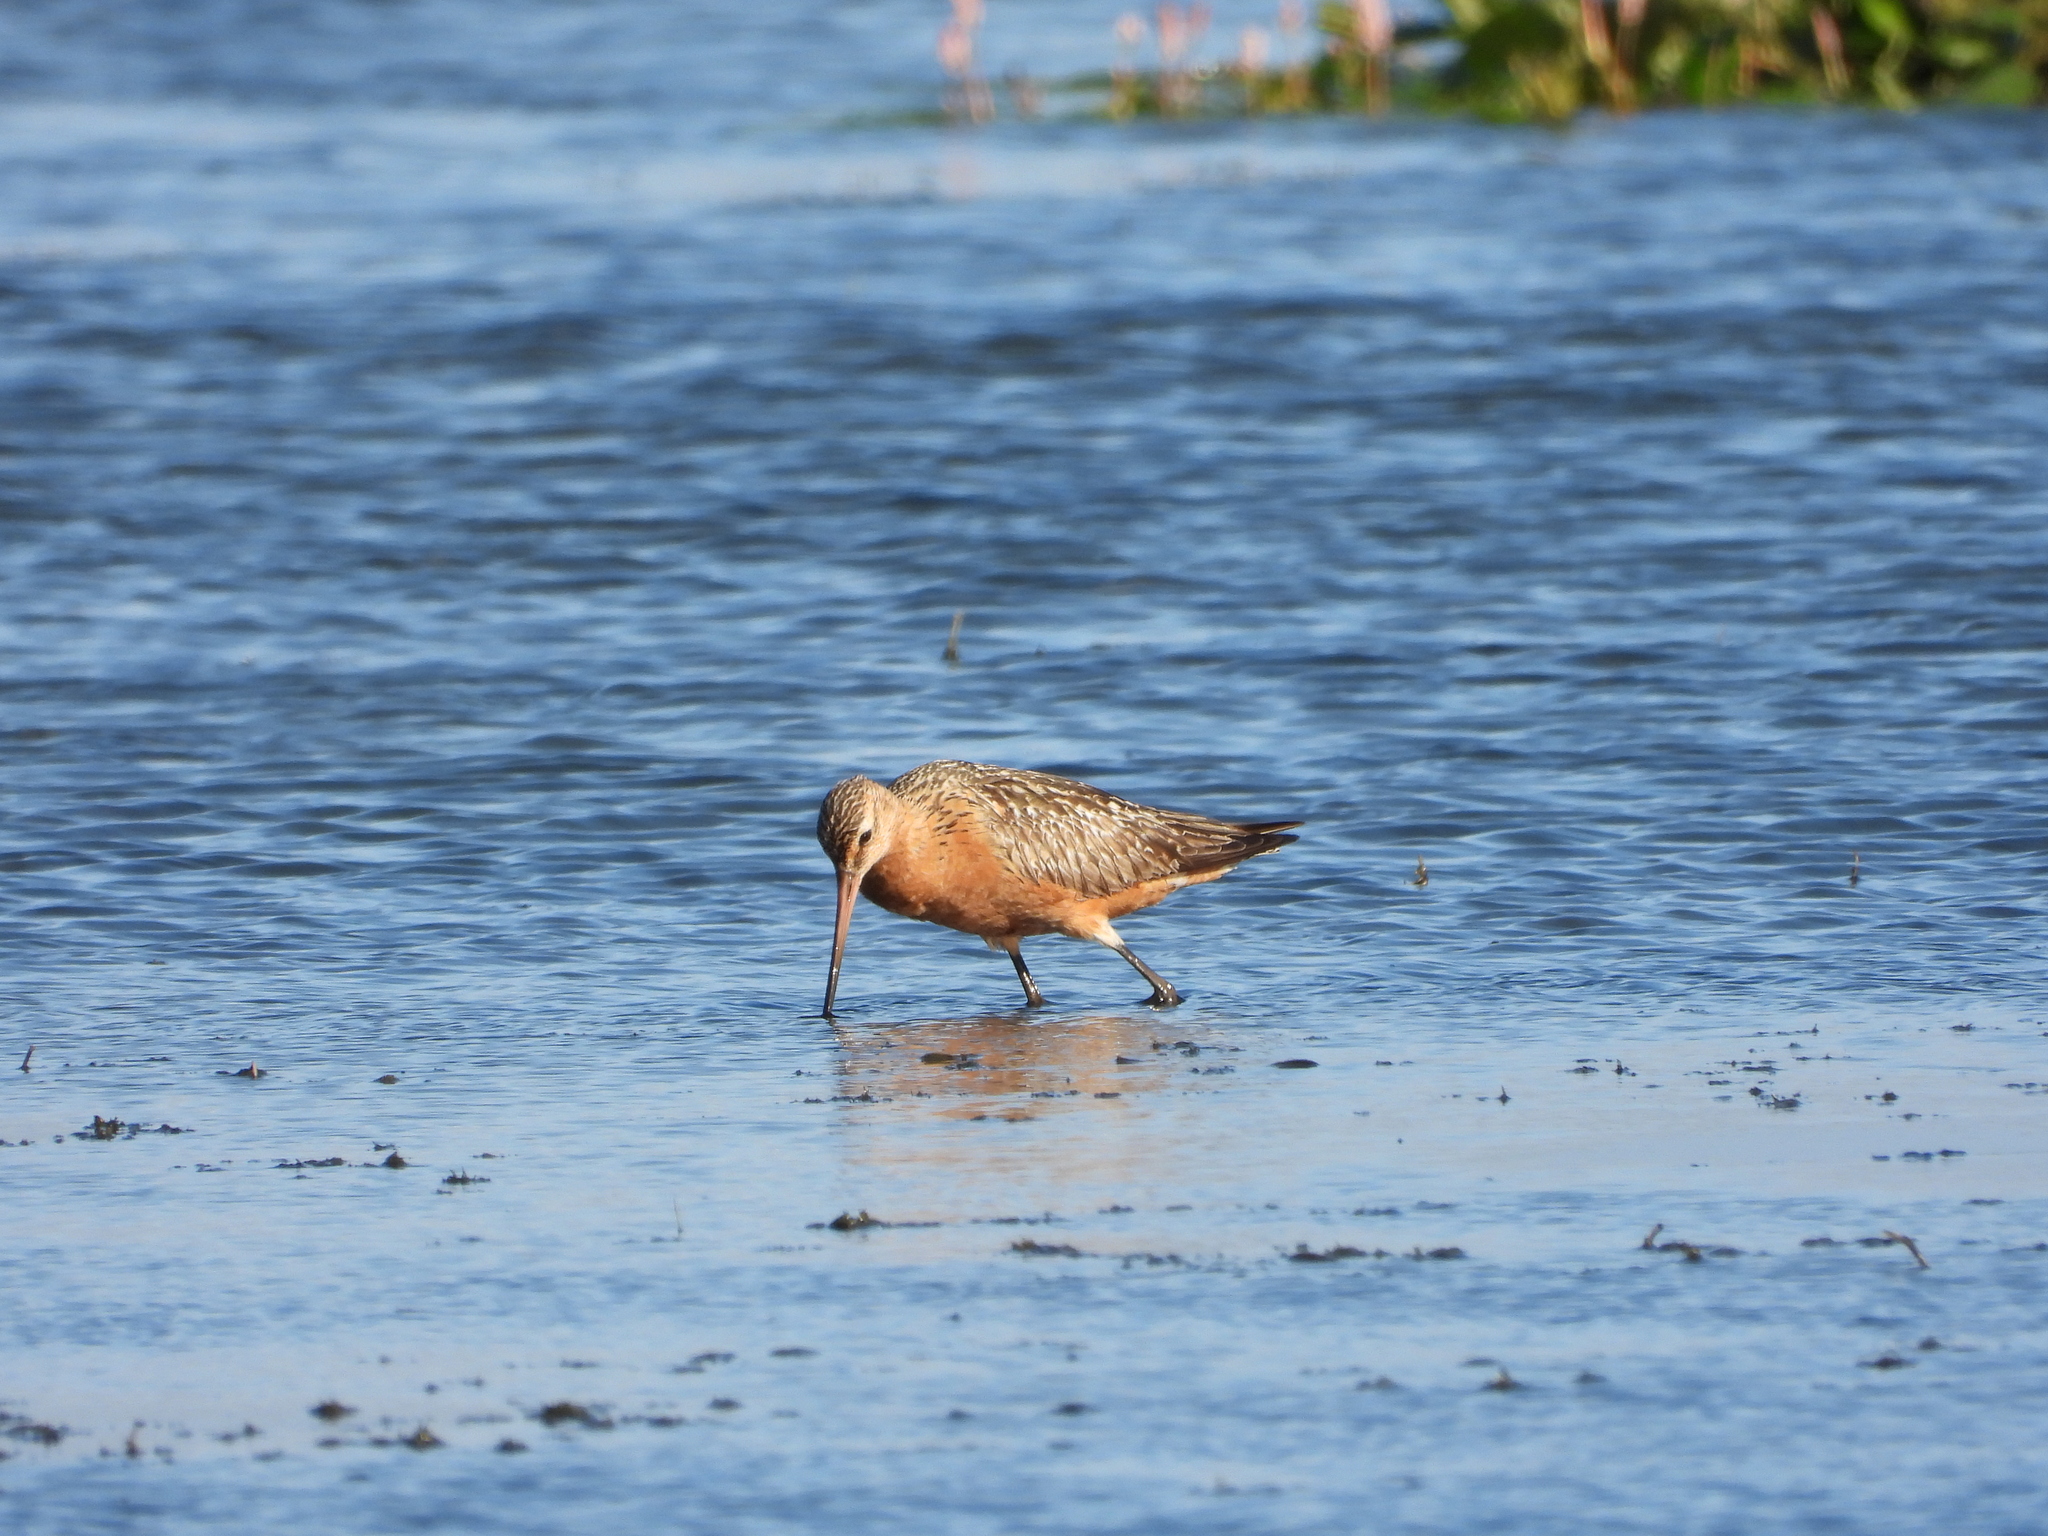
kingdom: Animalia
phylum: Chordata
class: Aves
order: Charadriiformes
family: Scolopacidae
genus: Limosa
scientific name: Limosa lapponica
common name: Bar-tailed godwit
